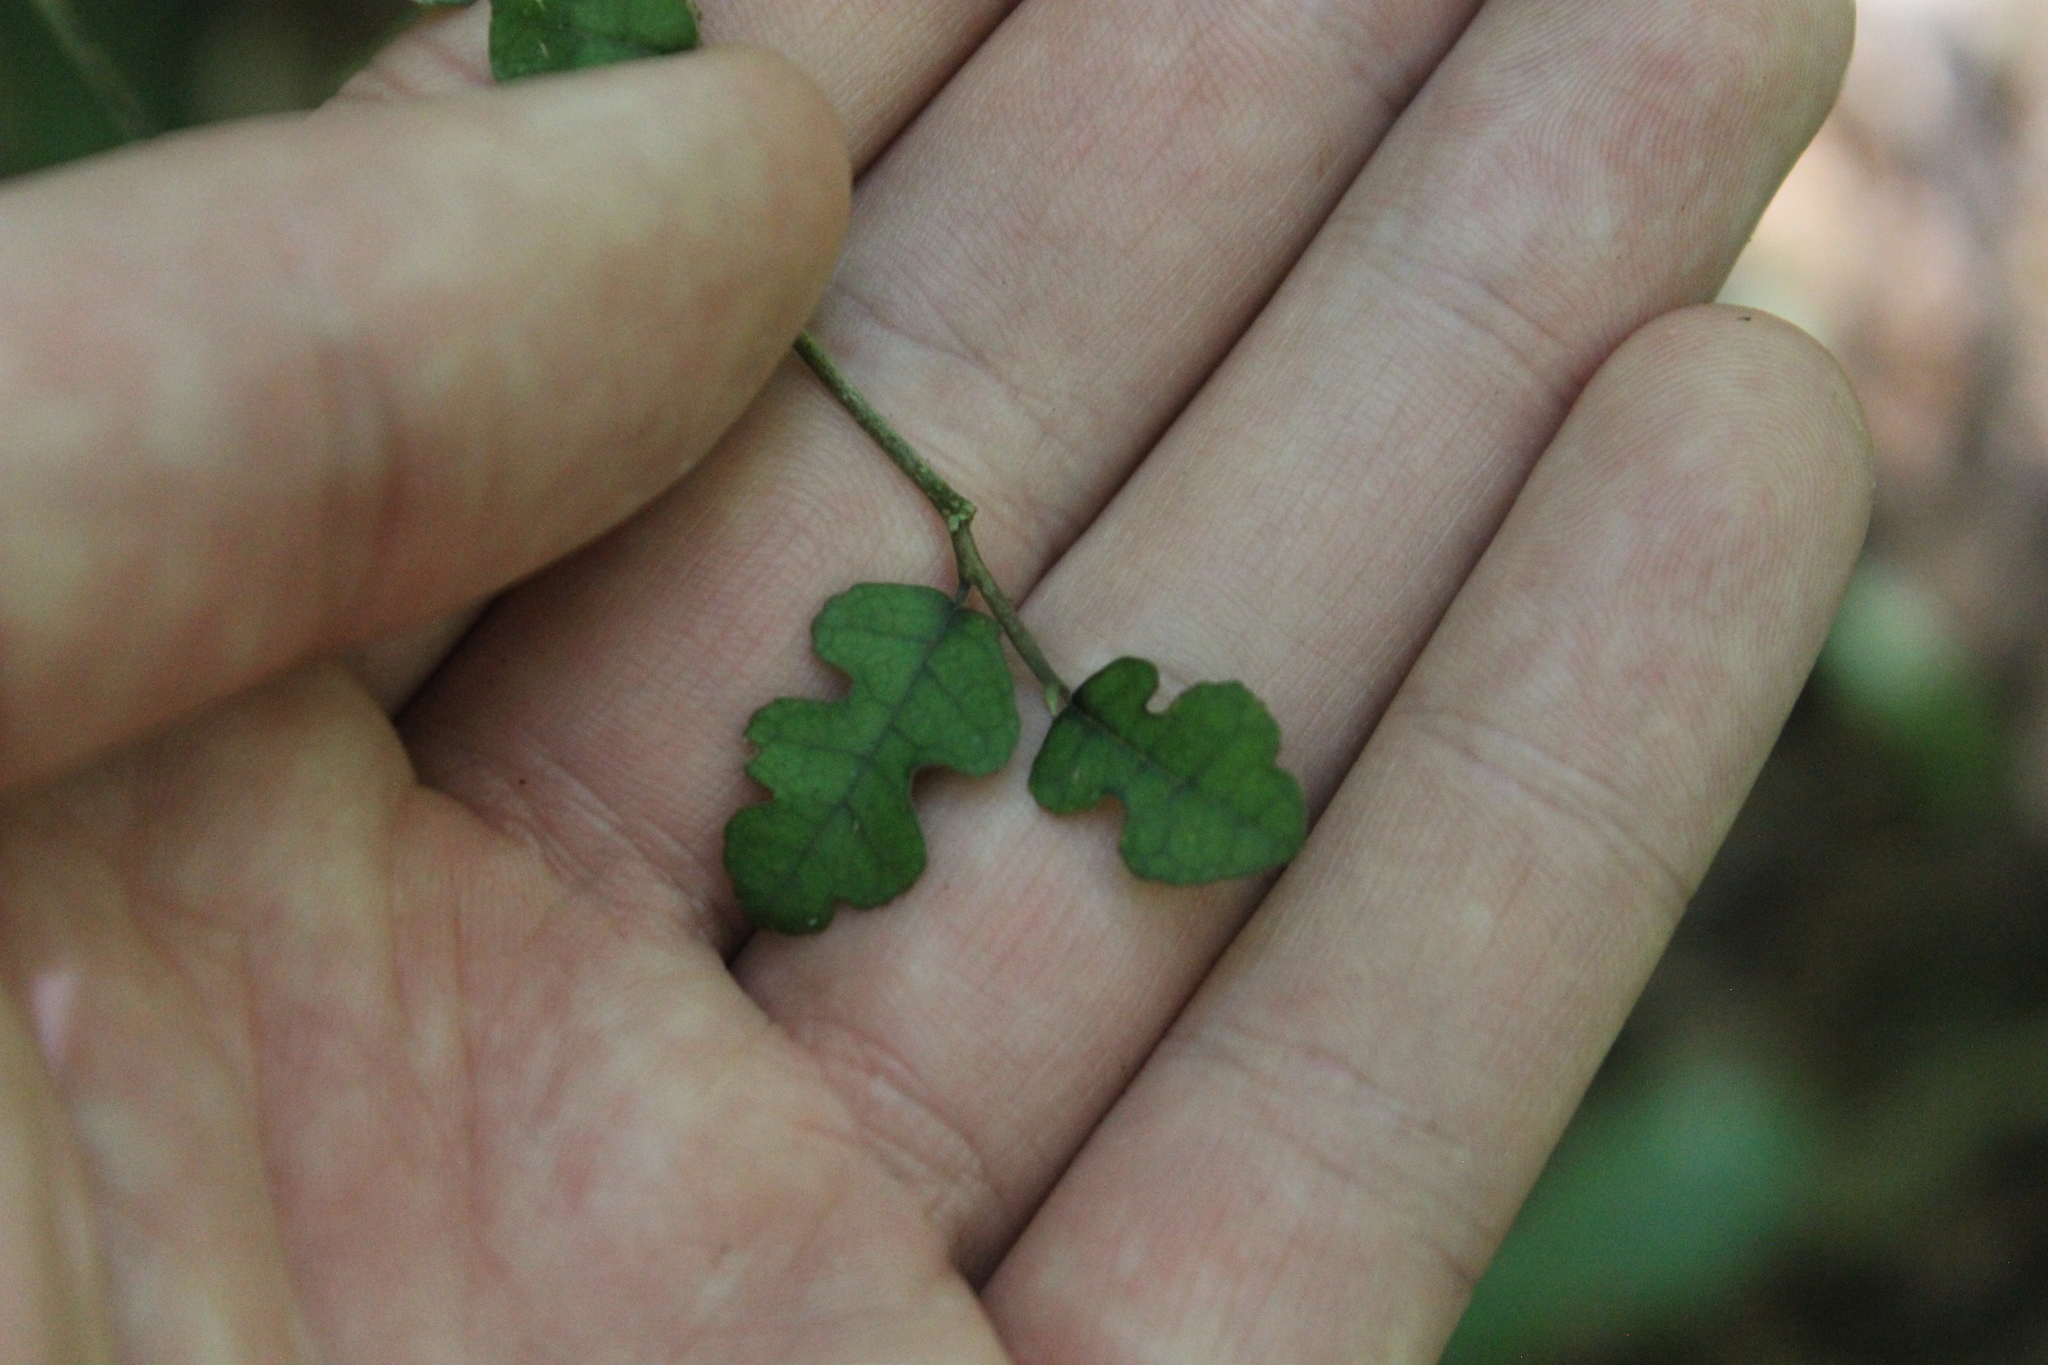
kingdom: Plantae
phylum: Tracheophyta
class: Magnoliopsida
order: Rosales
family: Moraceae
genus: Paratrophis
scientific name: Paratrophis microphylla
